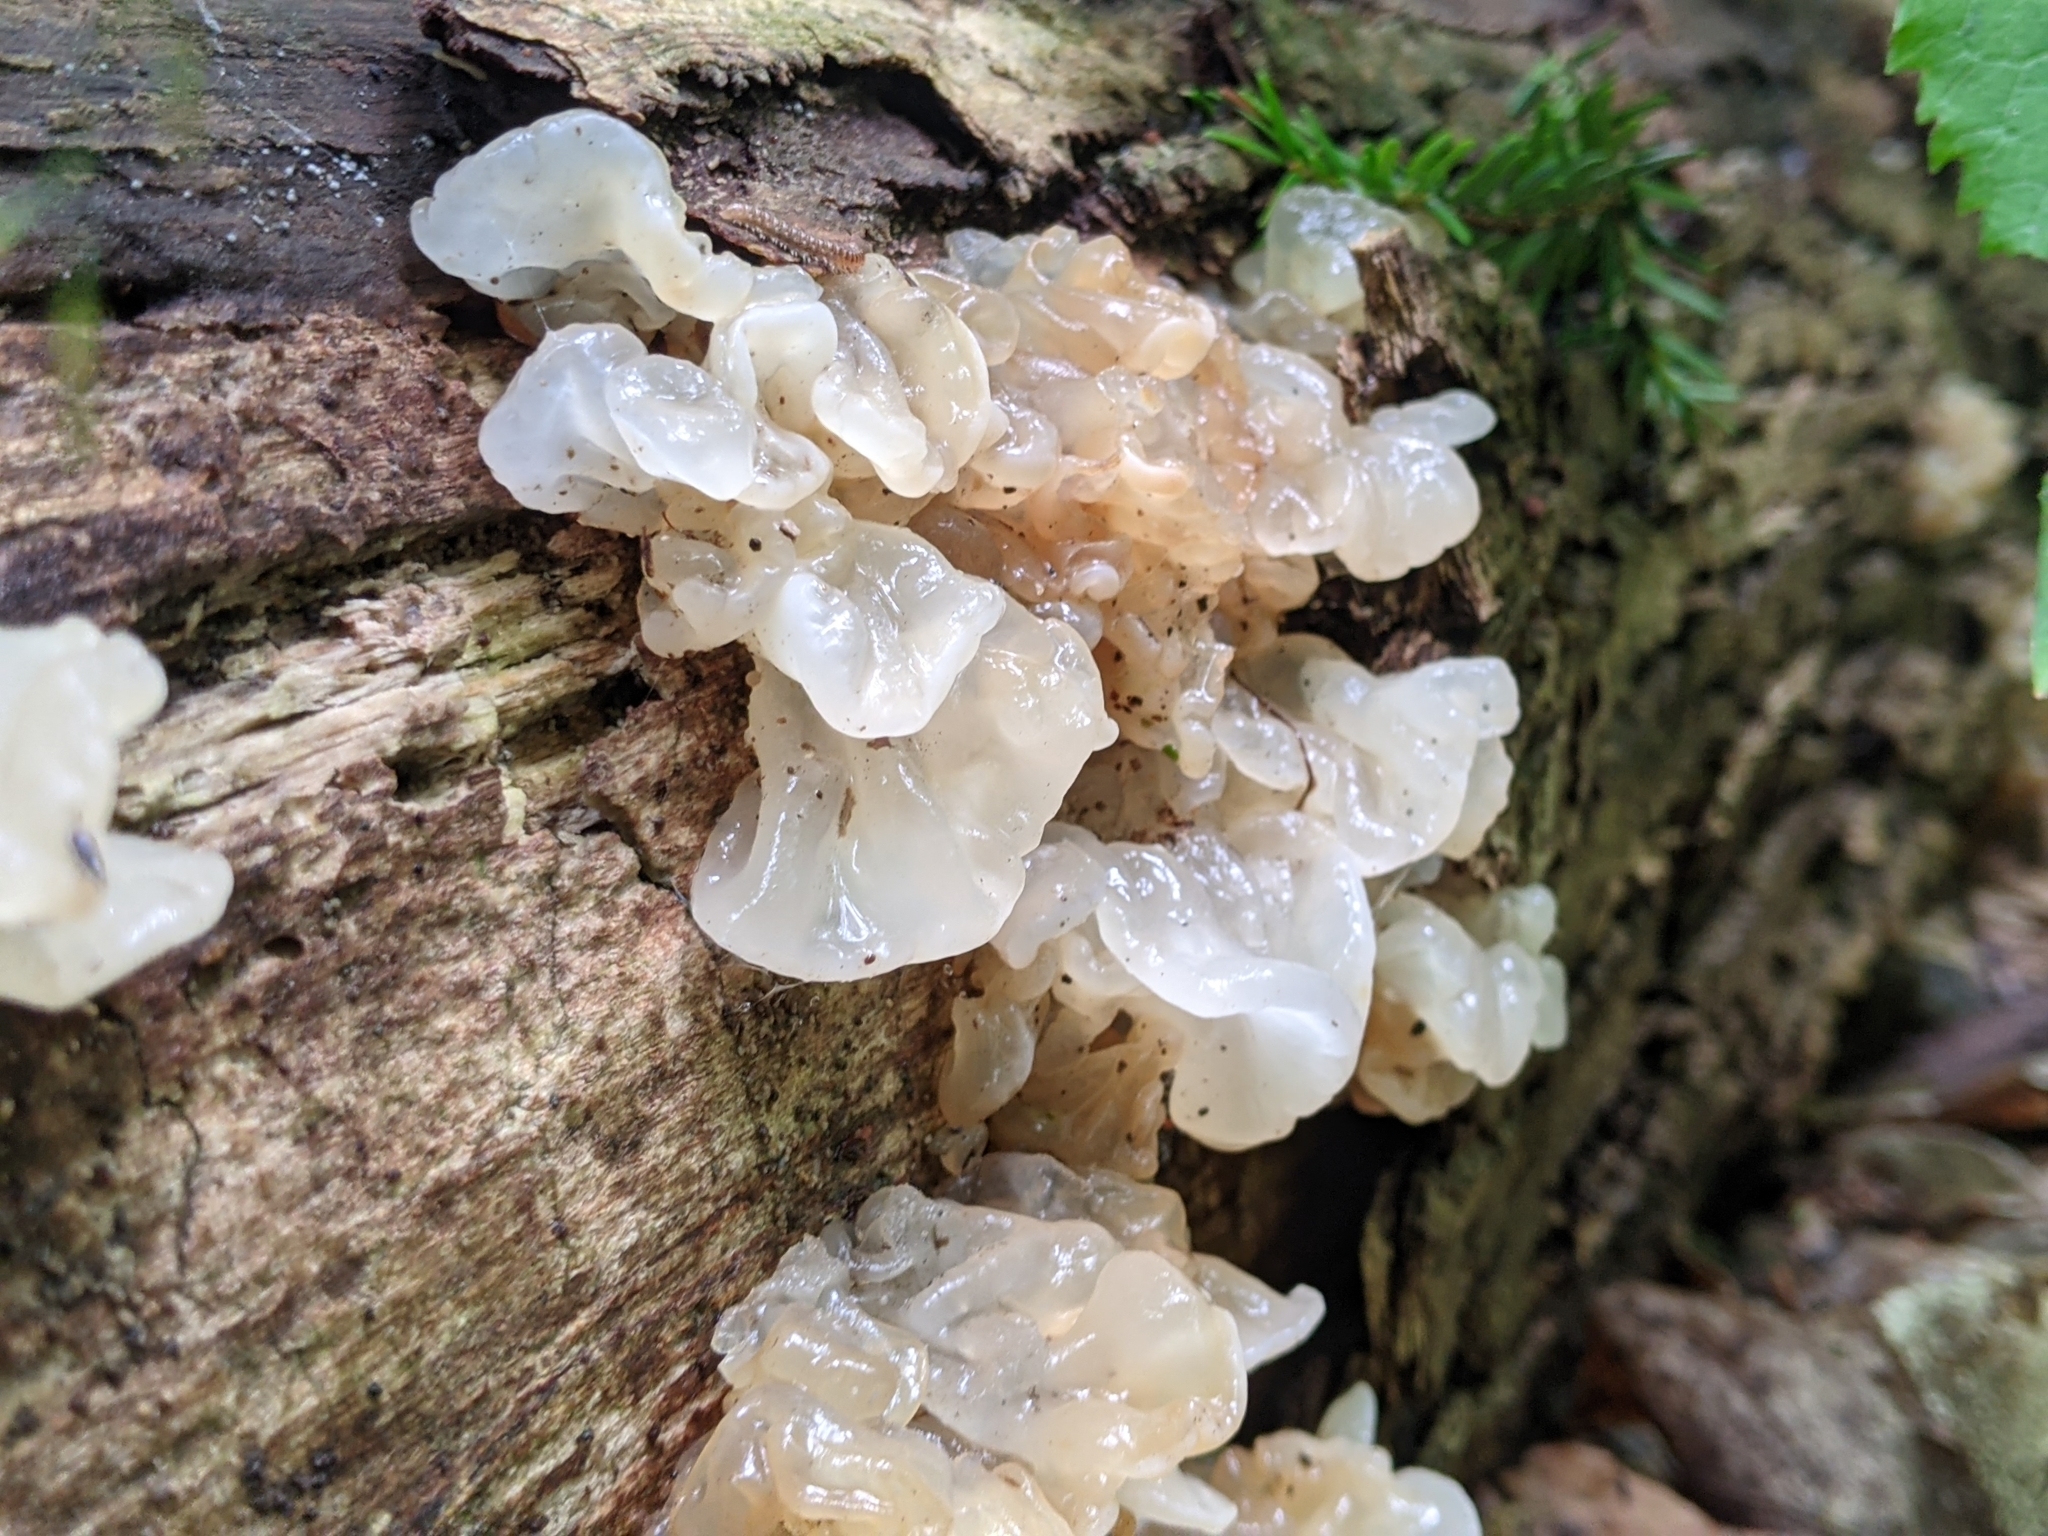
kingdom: Fungi
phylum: Basidiomycota
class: Agaricomycetes
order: Auriculariales
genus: Ductifera
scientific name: Ductifera pululahuana
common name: White jelly fungus
